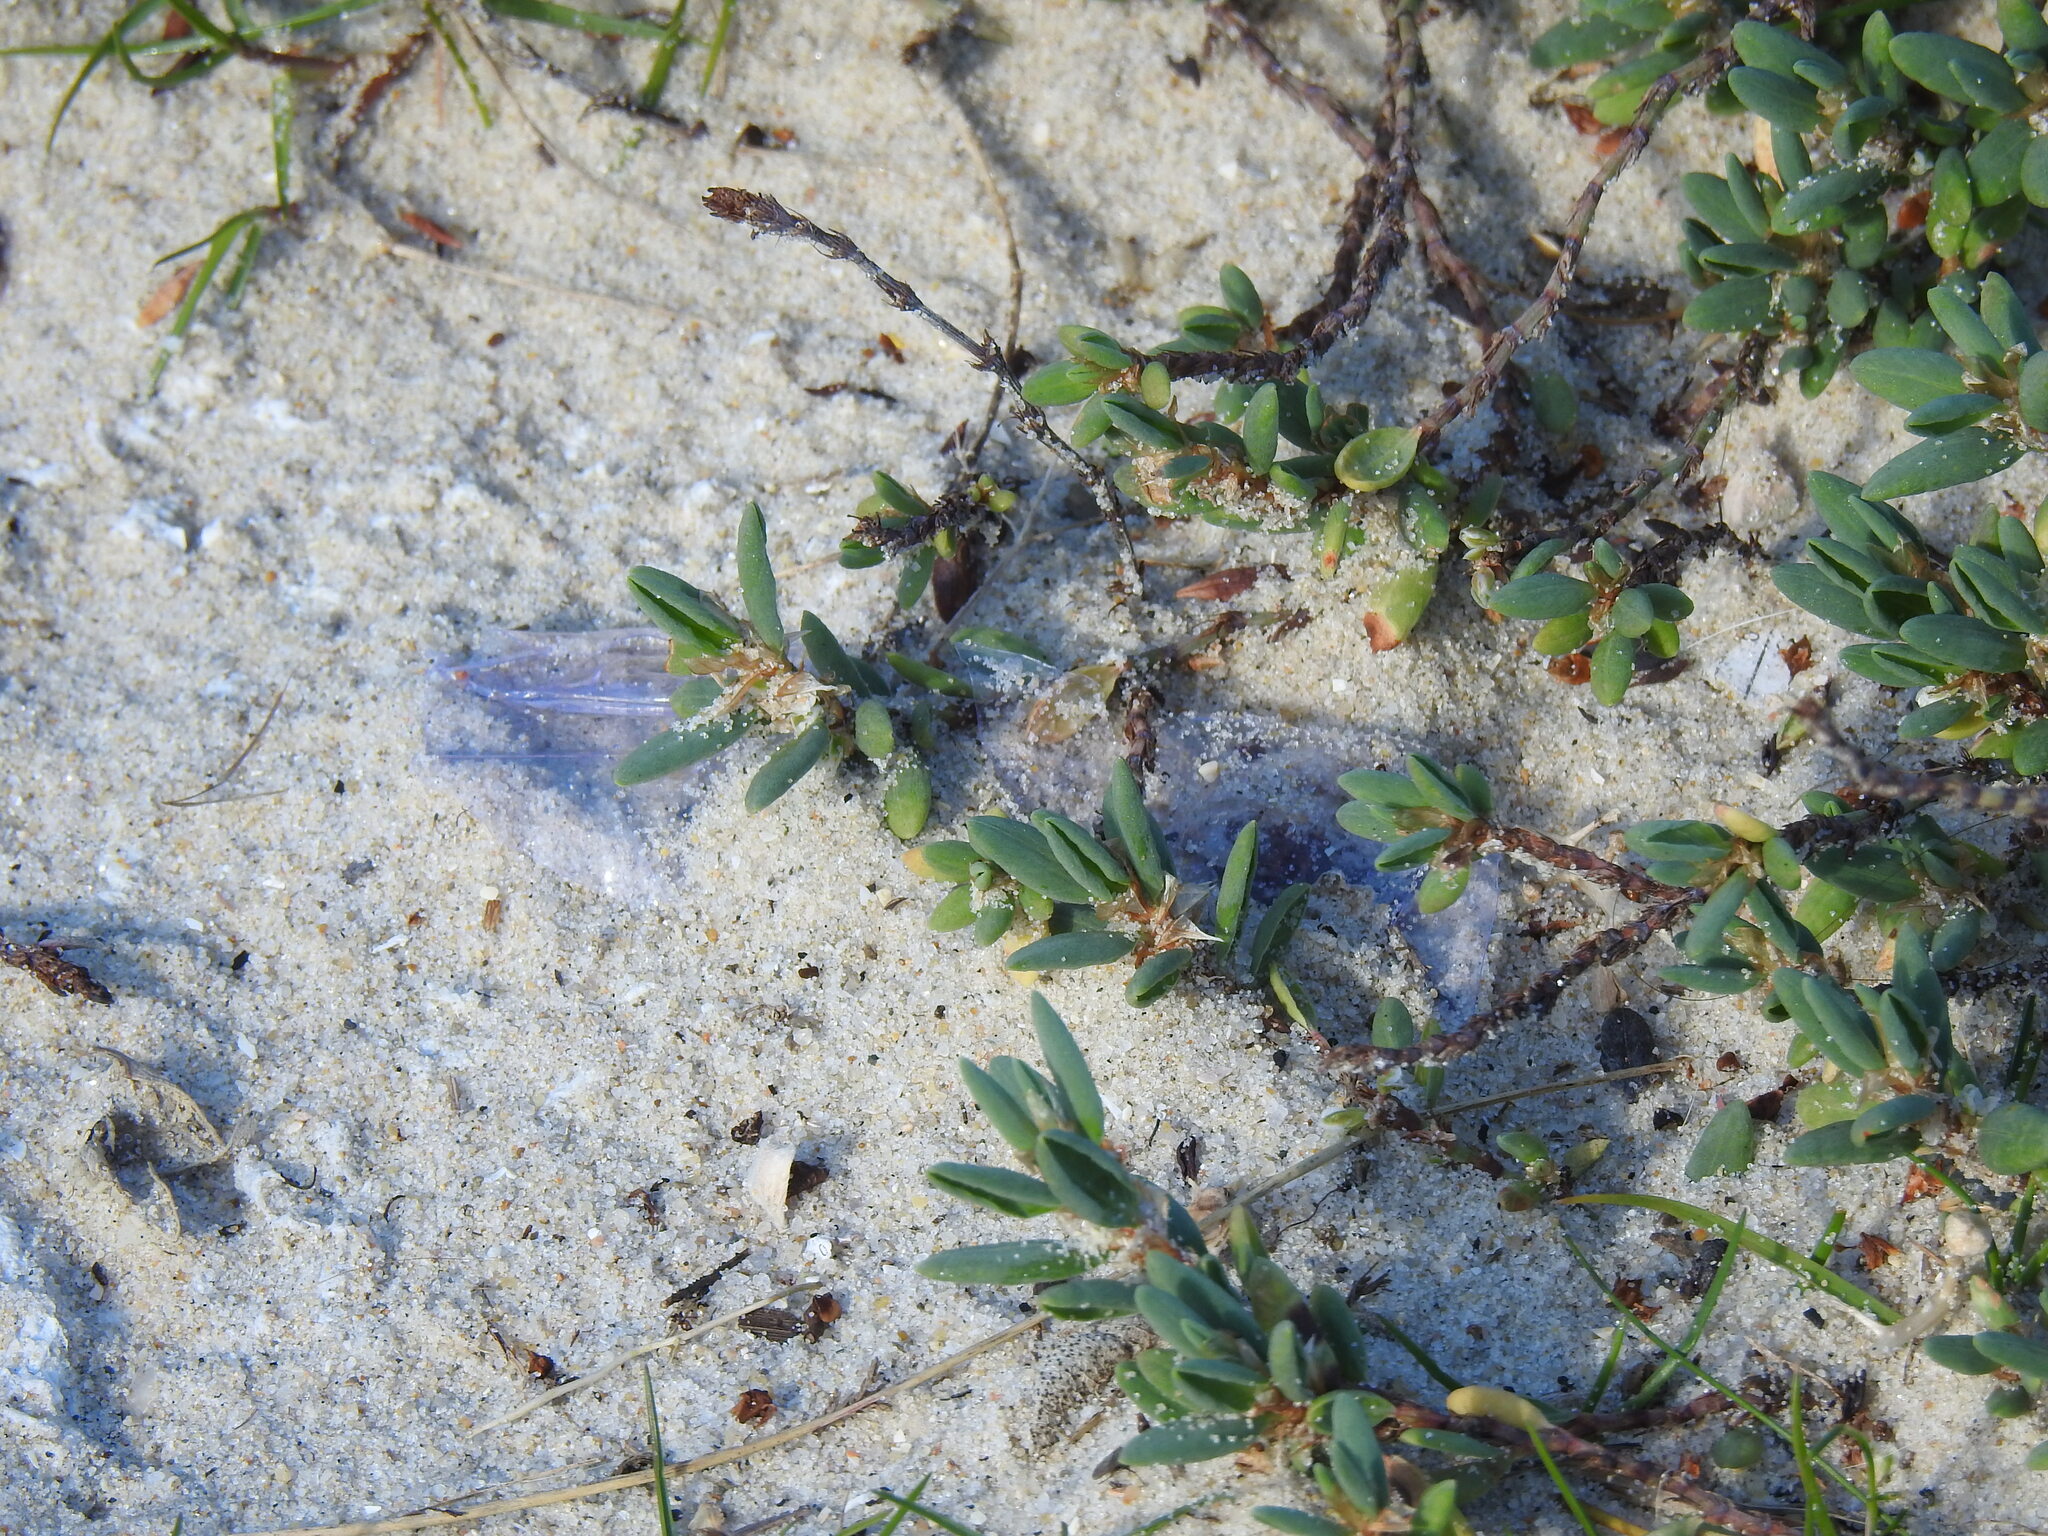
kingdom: Plantae
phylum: Tracheophyta
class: Magnoliopsida
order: Caryophyllales
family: Polygonaceae
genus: Polygonum
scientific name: Polygonum maritimum
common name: Sea knotgrass
